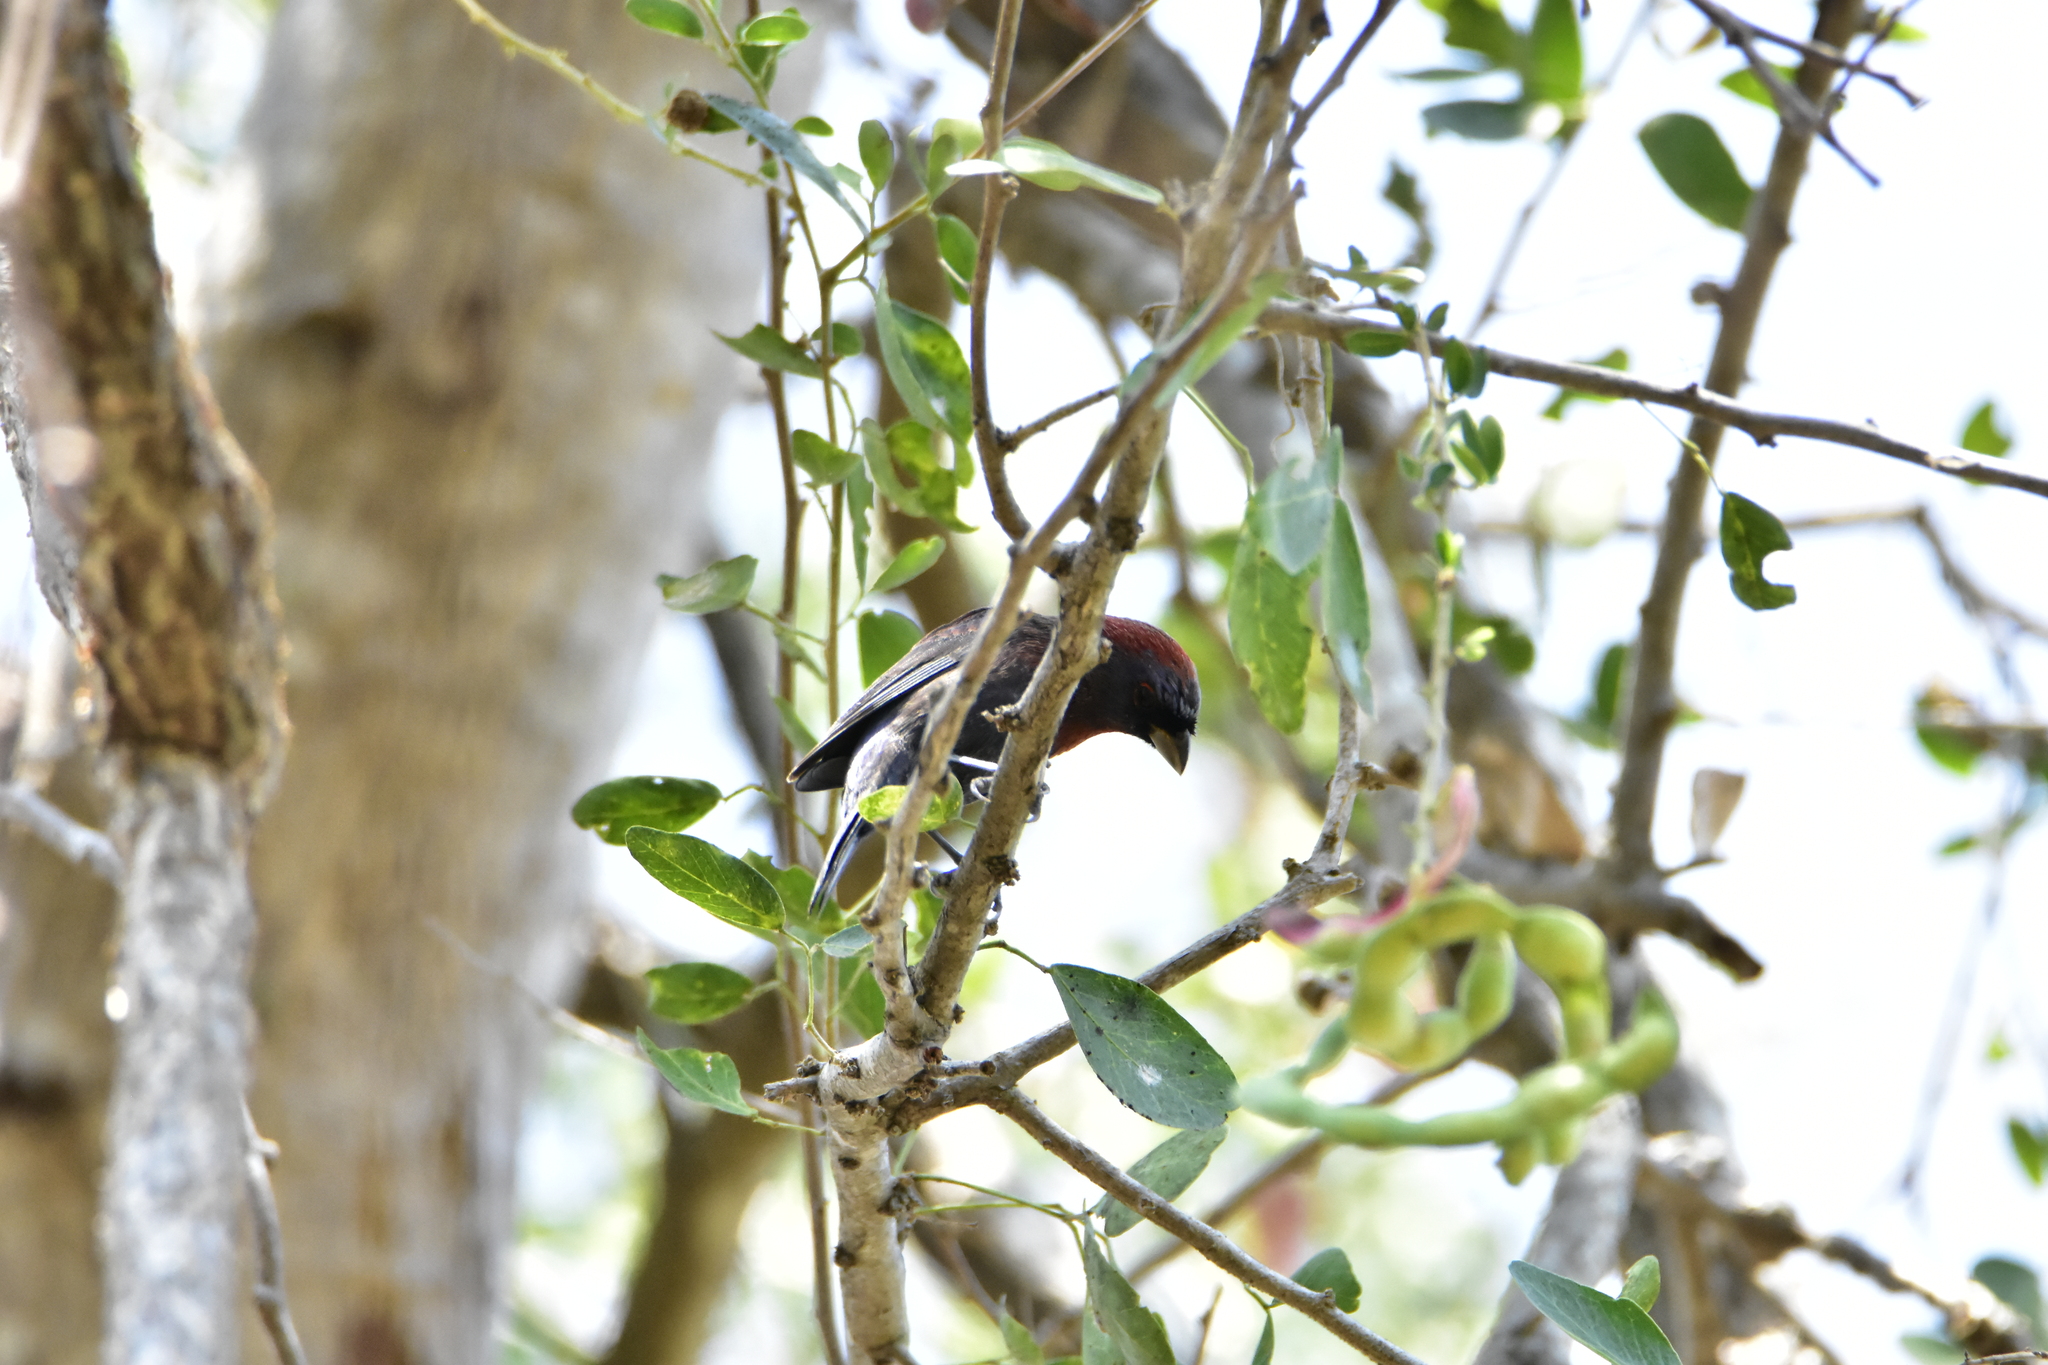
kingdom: Animalia
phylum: Chordata
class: Aves
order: Passeriformes
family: Cardinalidae
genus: Passerina
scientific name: Passerina versicolor
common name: Varied bunting
